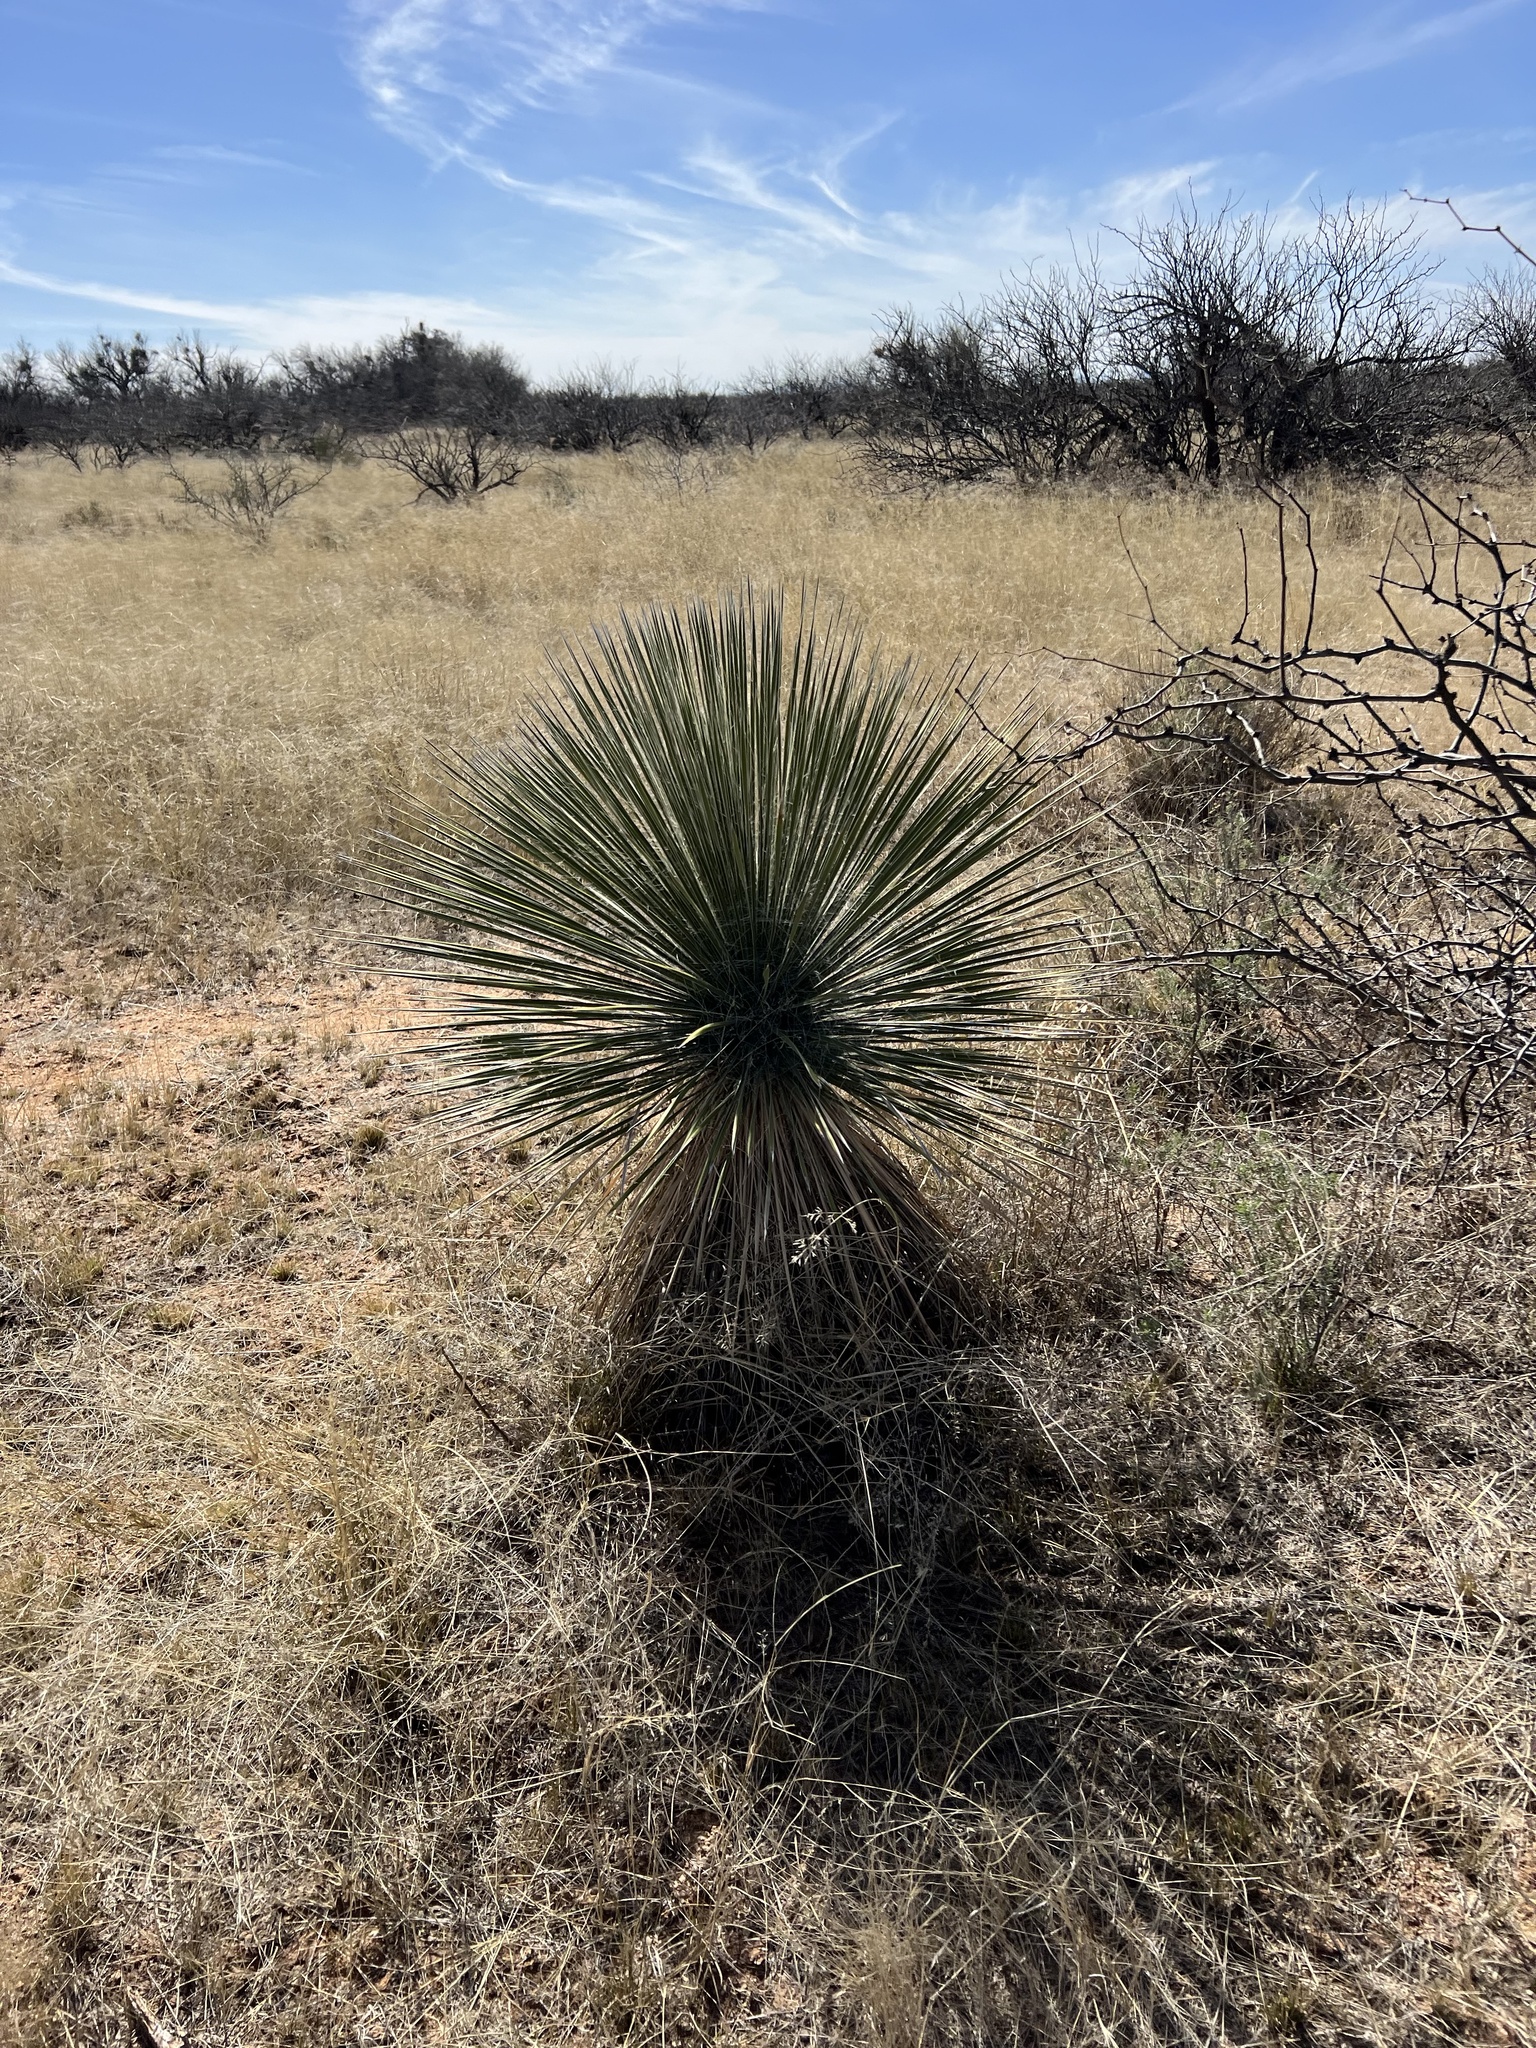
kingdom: Plantae
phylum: Tracheophyta
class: Liliopsida
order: Asparagales
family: Asparagaceae
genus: Yucca
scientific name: Yucca elata
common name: Palmella
